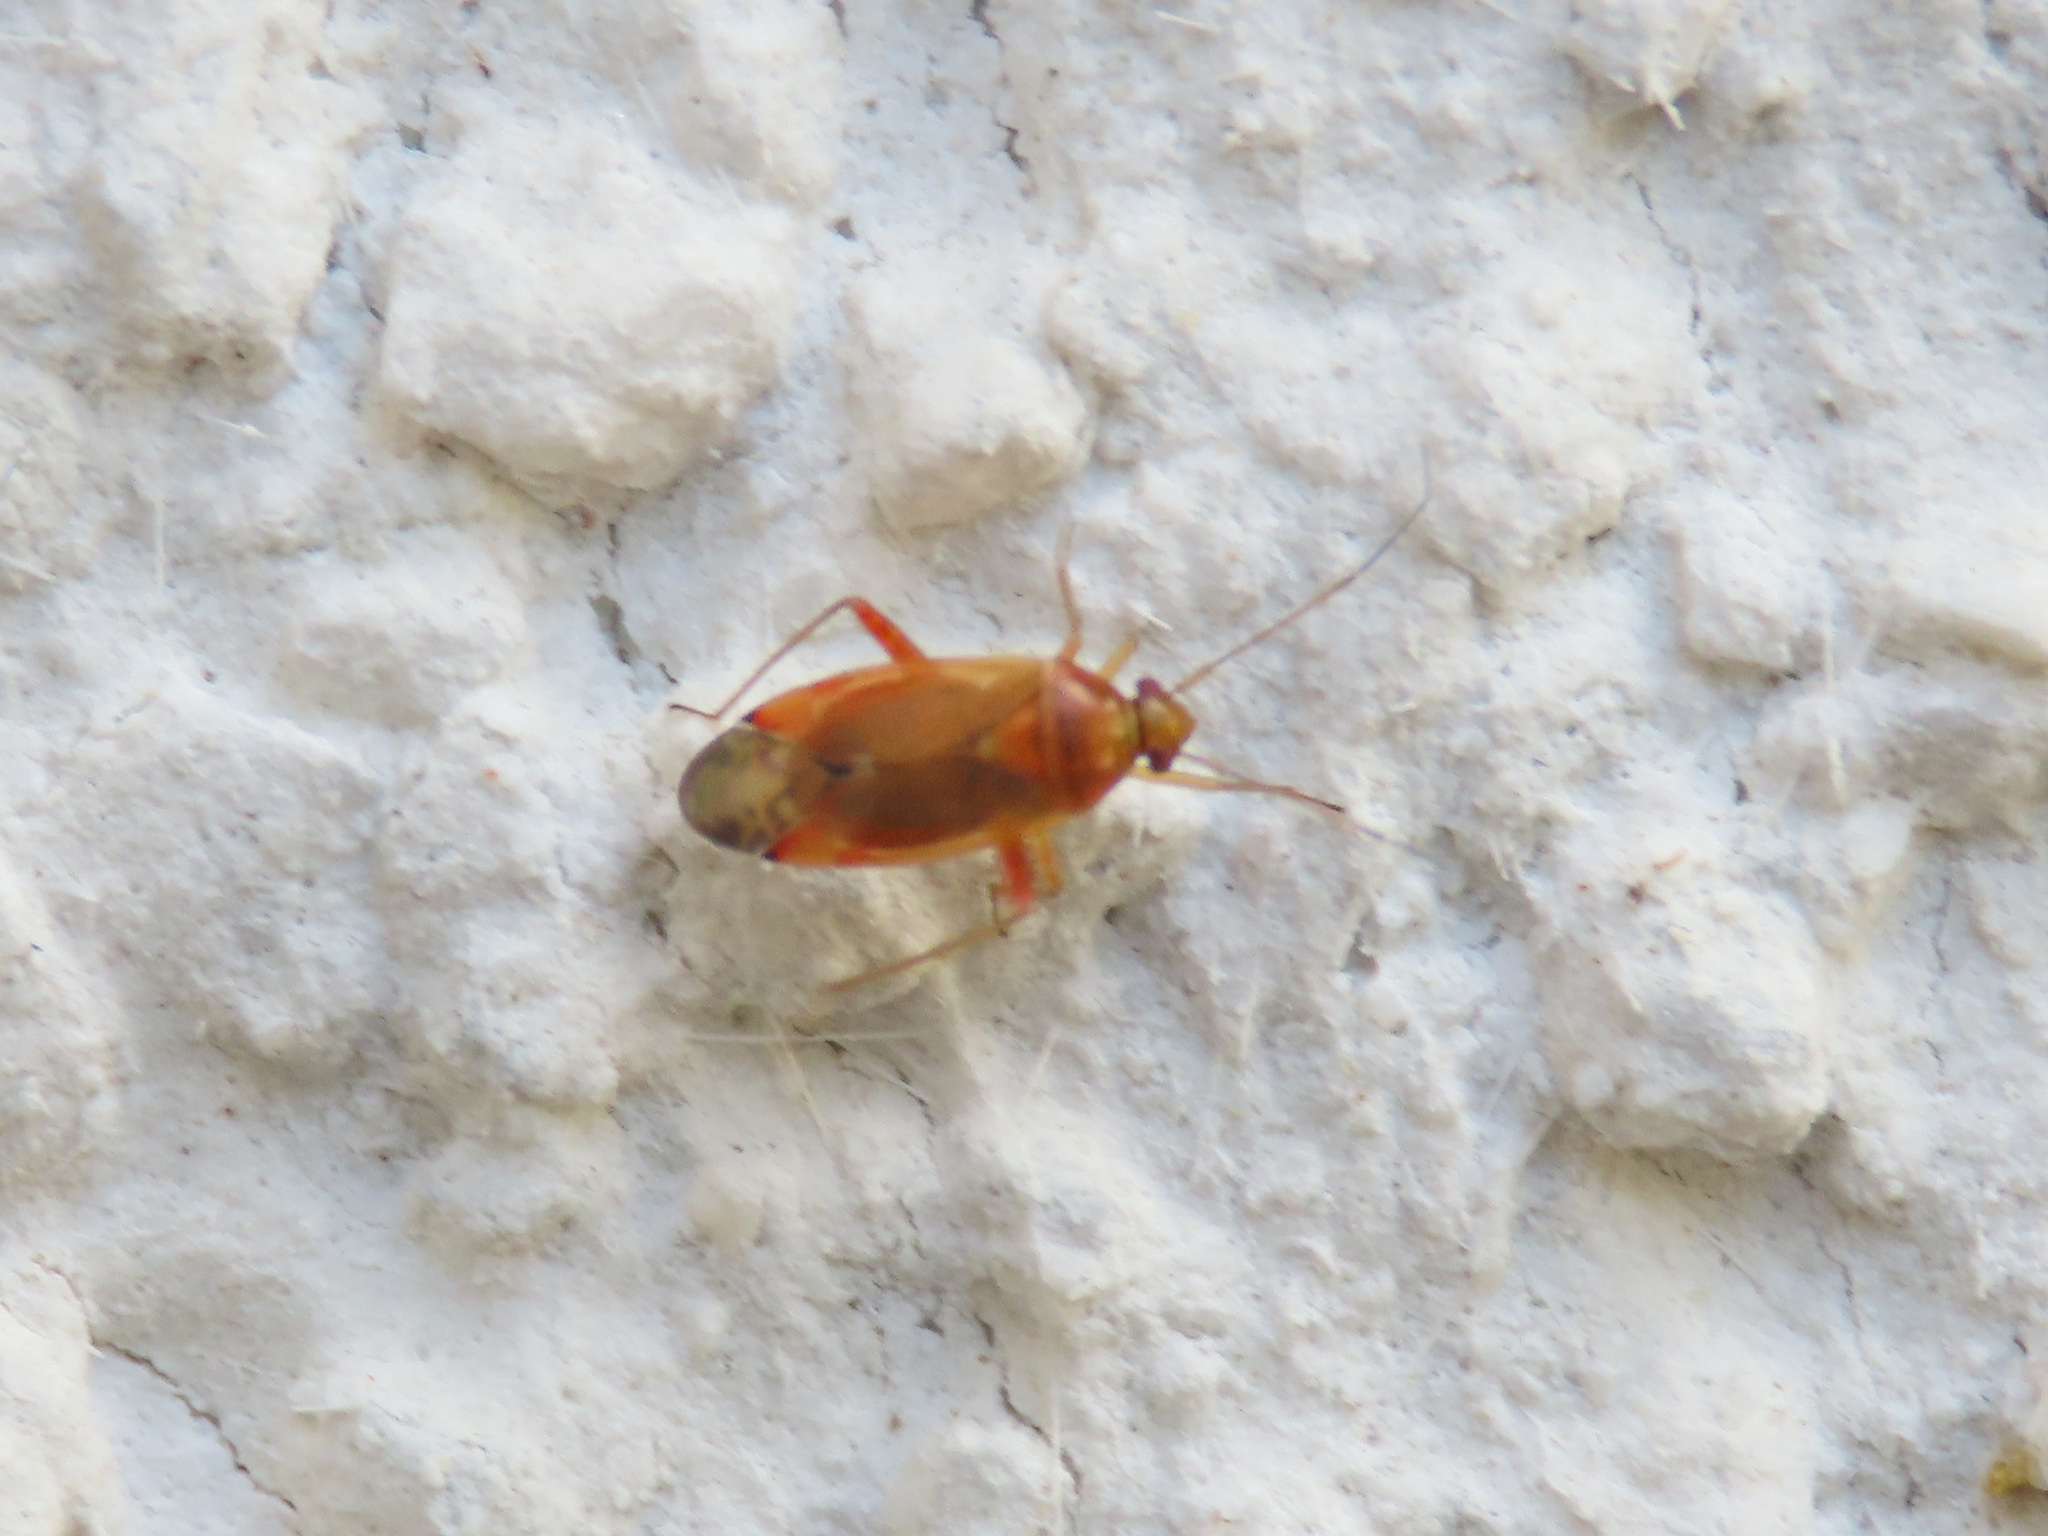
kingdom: Animalia
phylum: Arthropoda
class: Insecta
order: Hemiptera
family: Miridae
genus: Pinalitus
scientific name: Pinalitus rubricatus
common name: Plant bug
